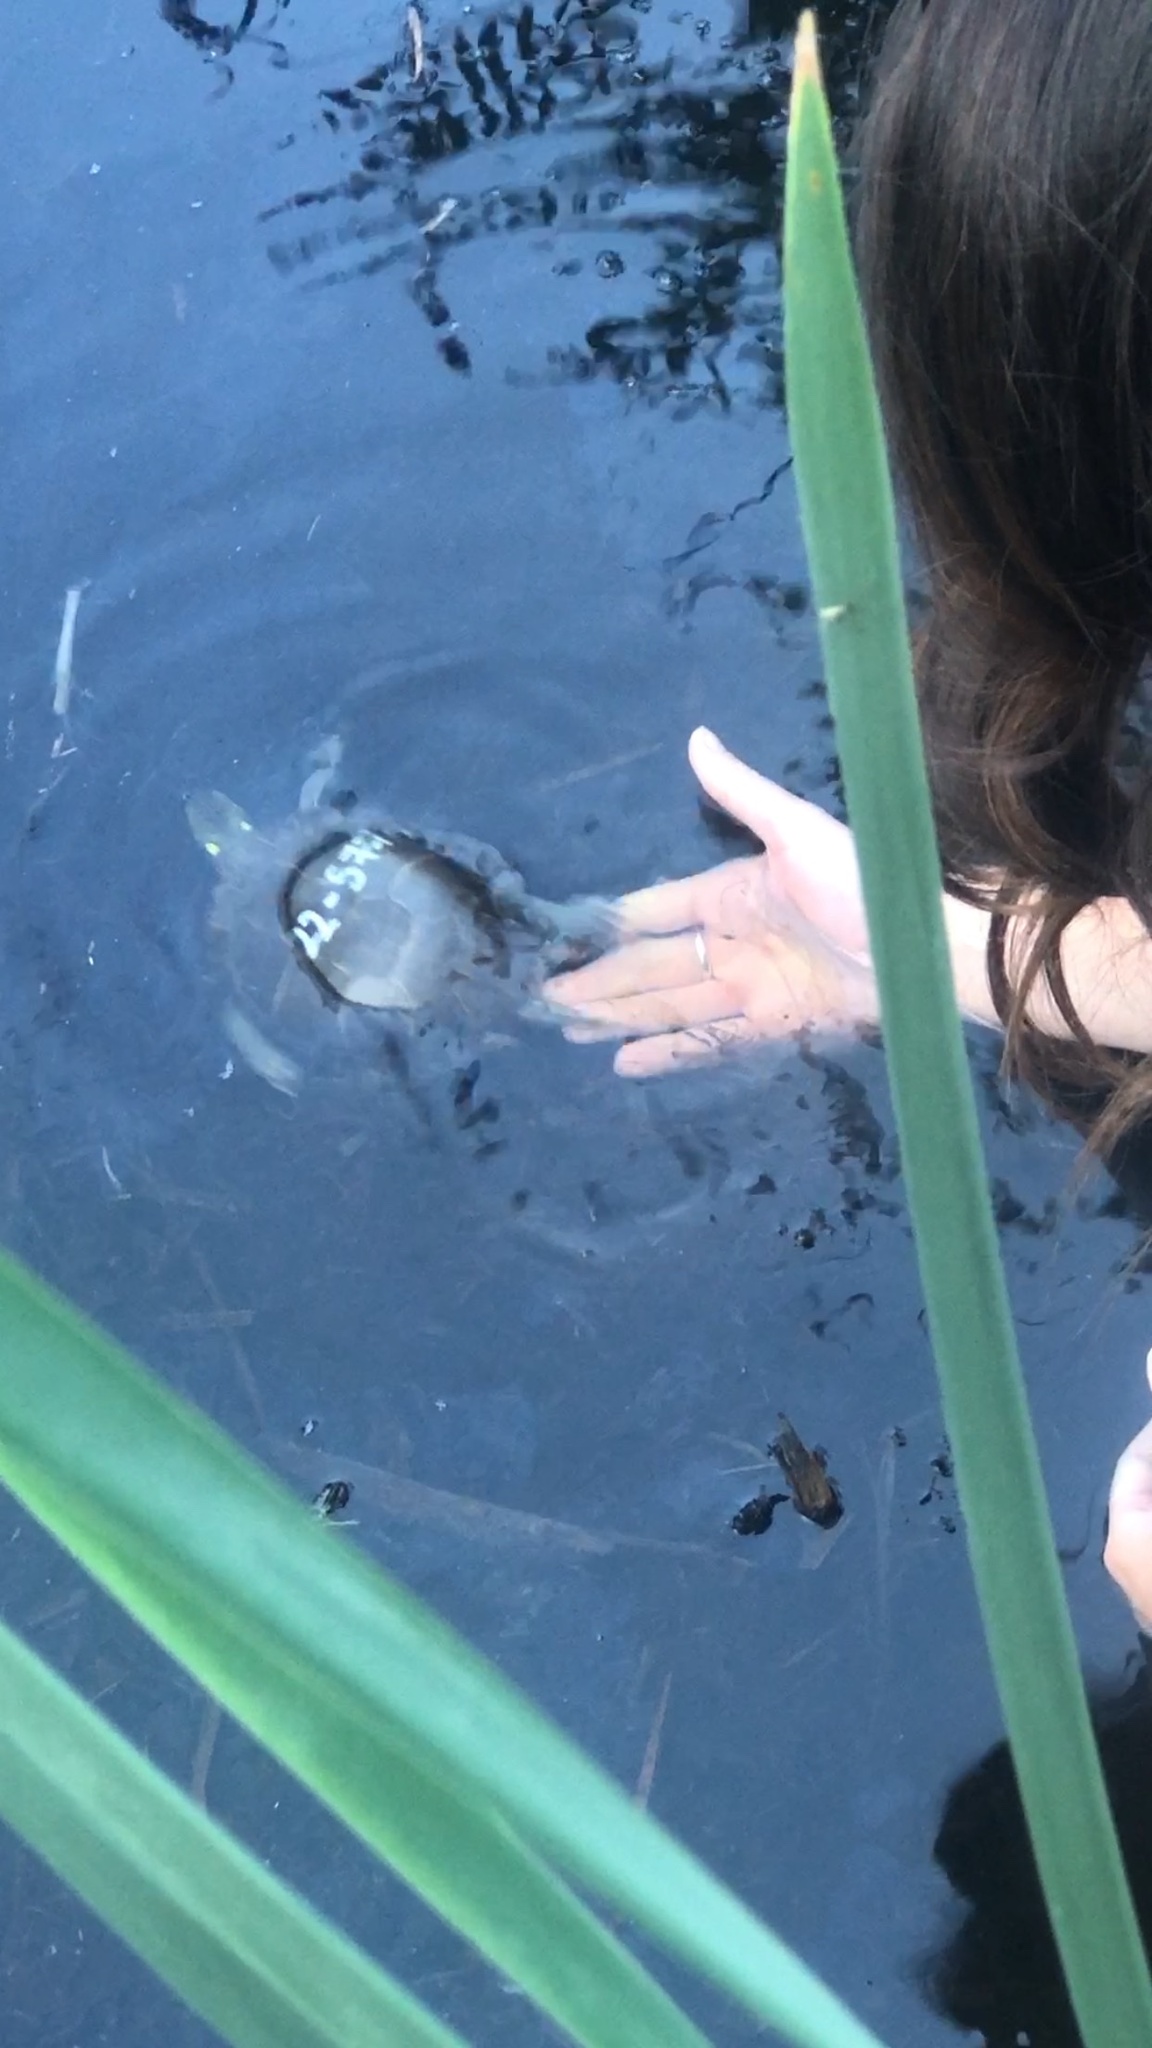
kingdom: Animalia
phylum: Chordata
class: Testudines
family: Emydidae
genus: Chrysemys
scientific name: Chrysemys picta
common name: Painted turtle
